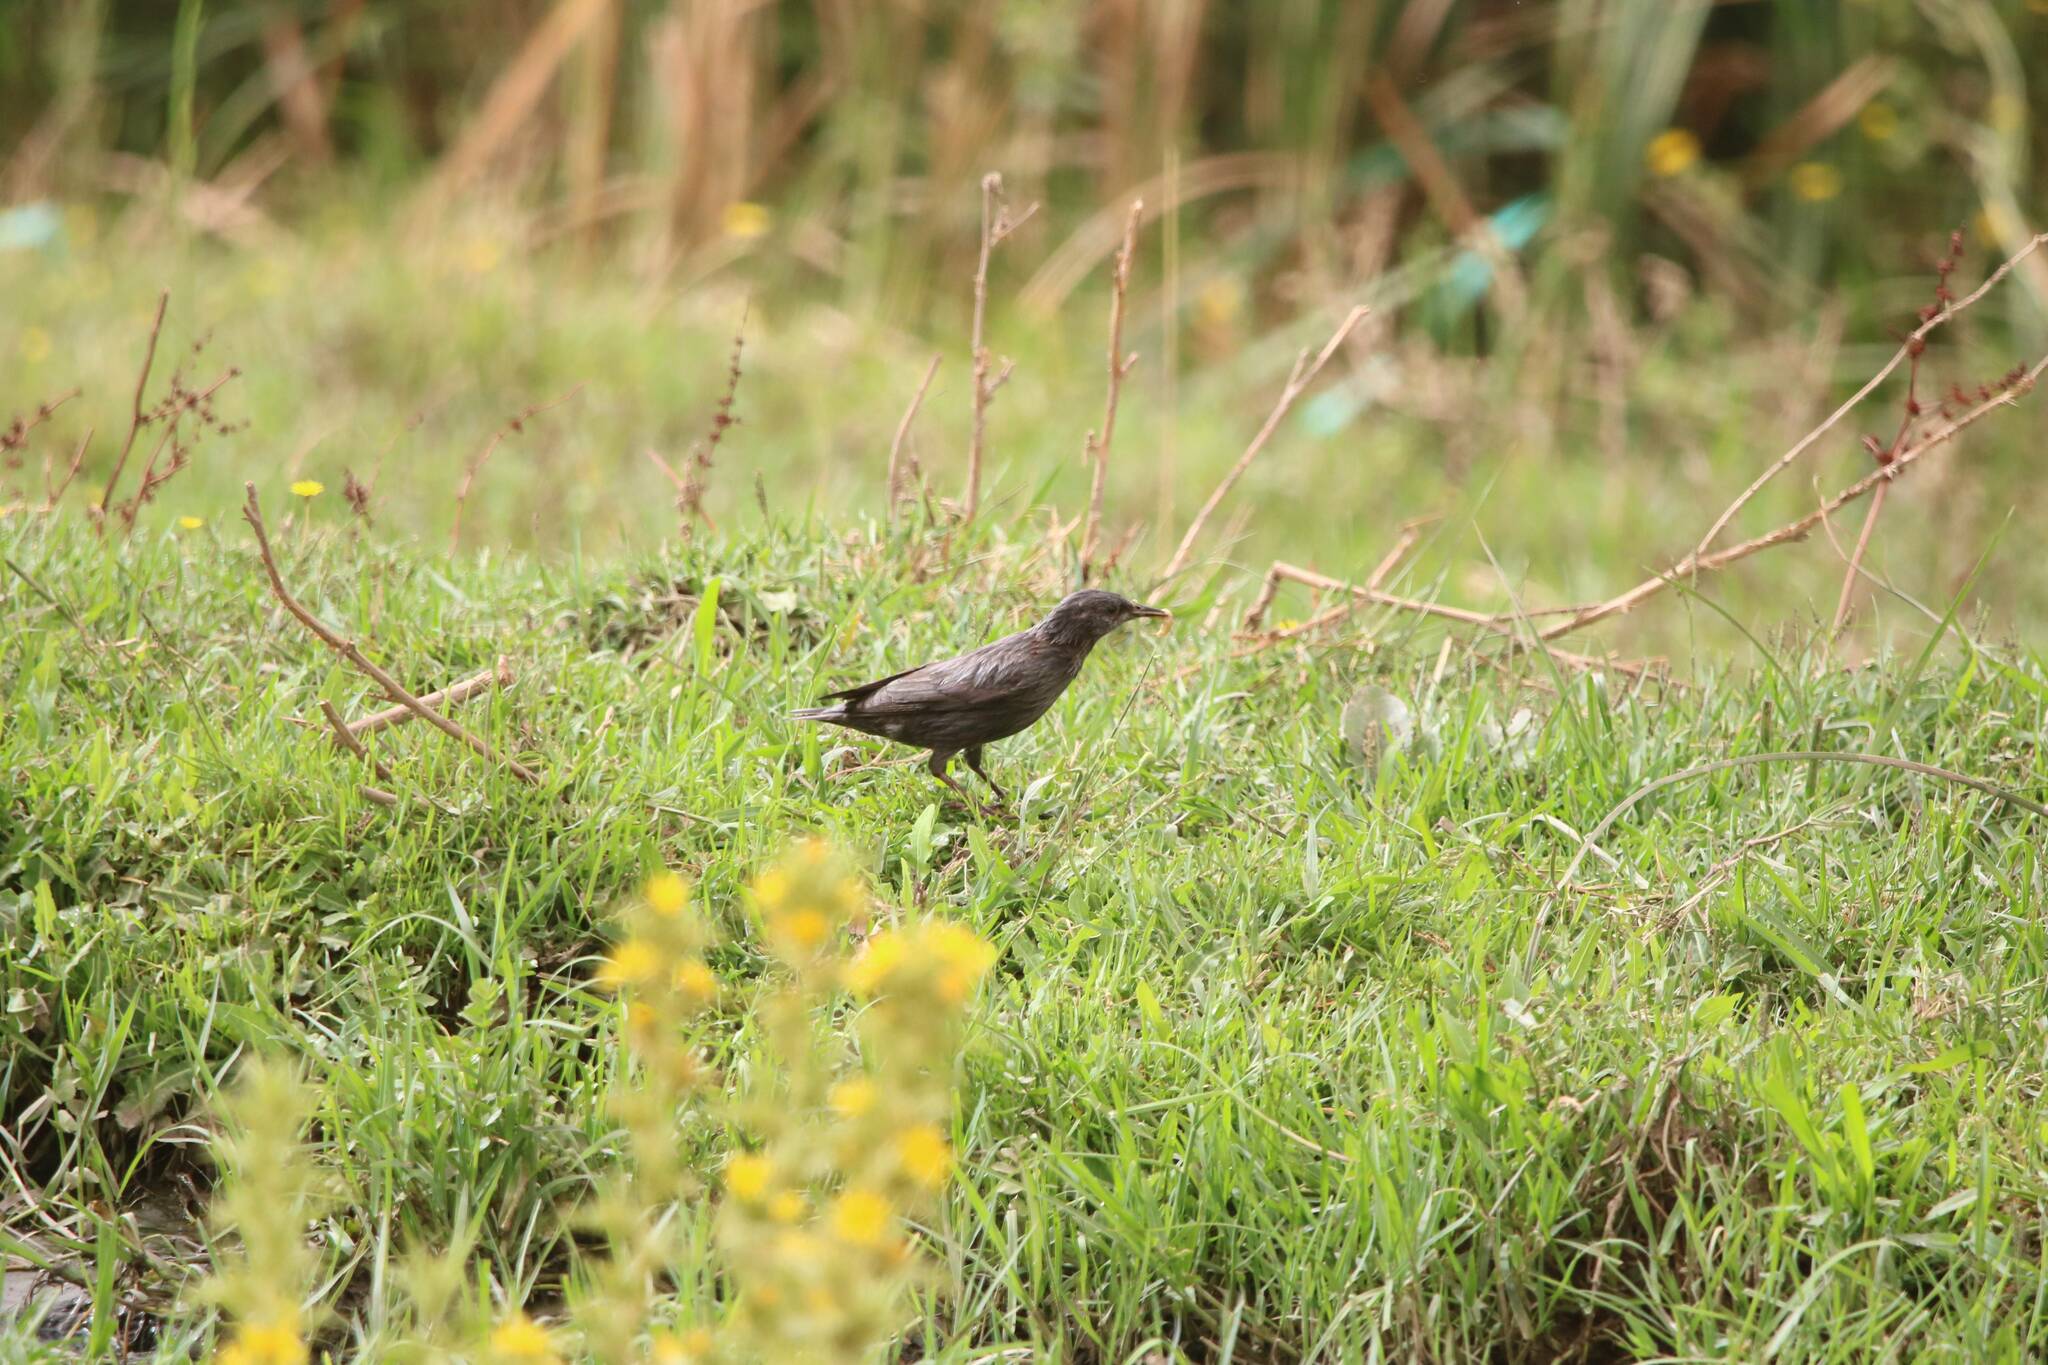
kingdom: Animalia
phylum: Chordata
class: Aves
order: Passeriformes
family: Sturnidae
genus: Sturnus
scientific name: Sturnus unicolor
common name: Spotless starling
